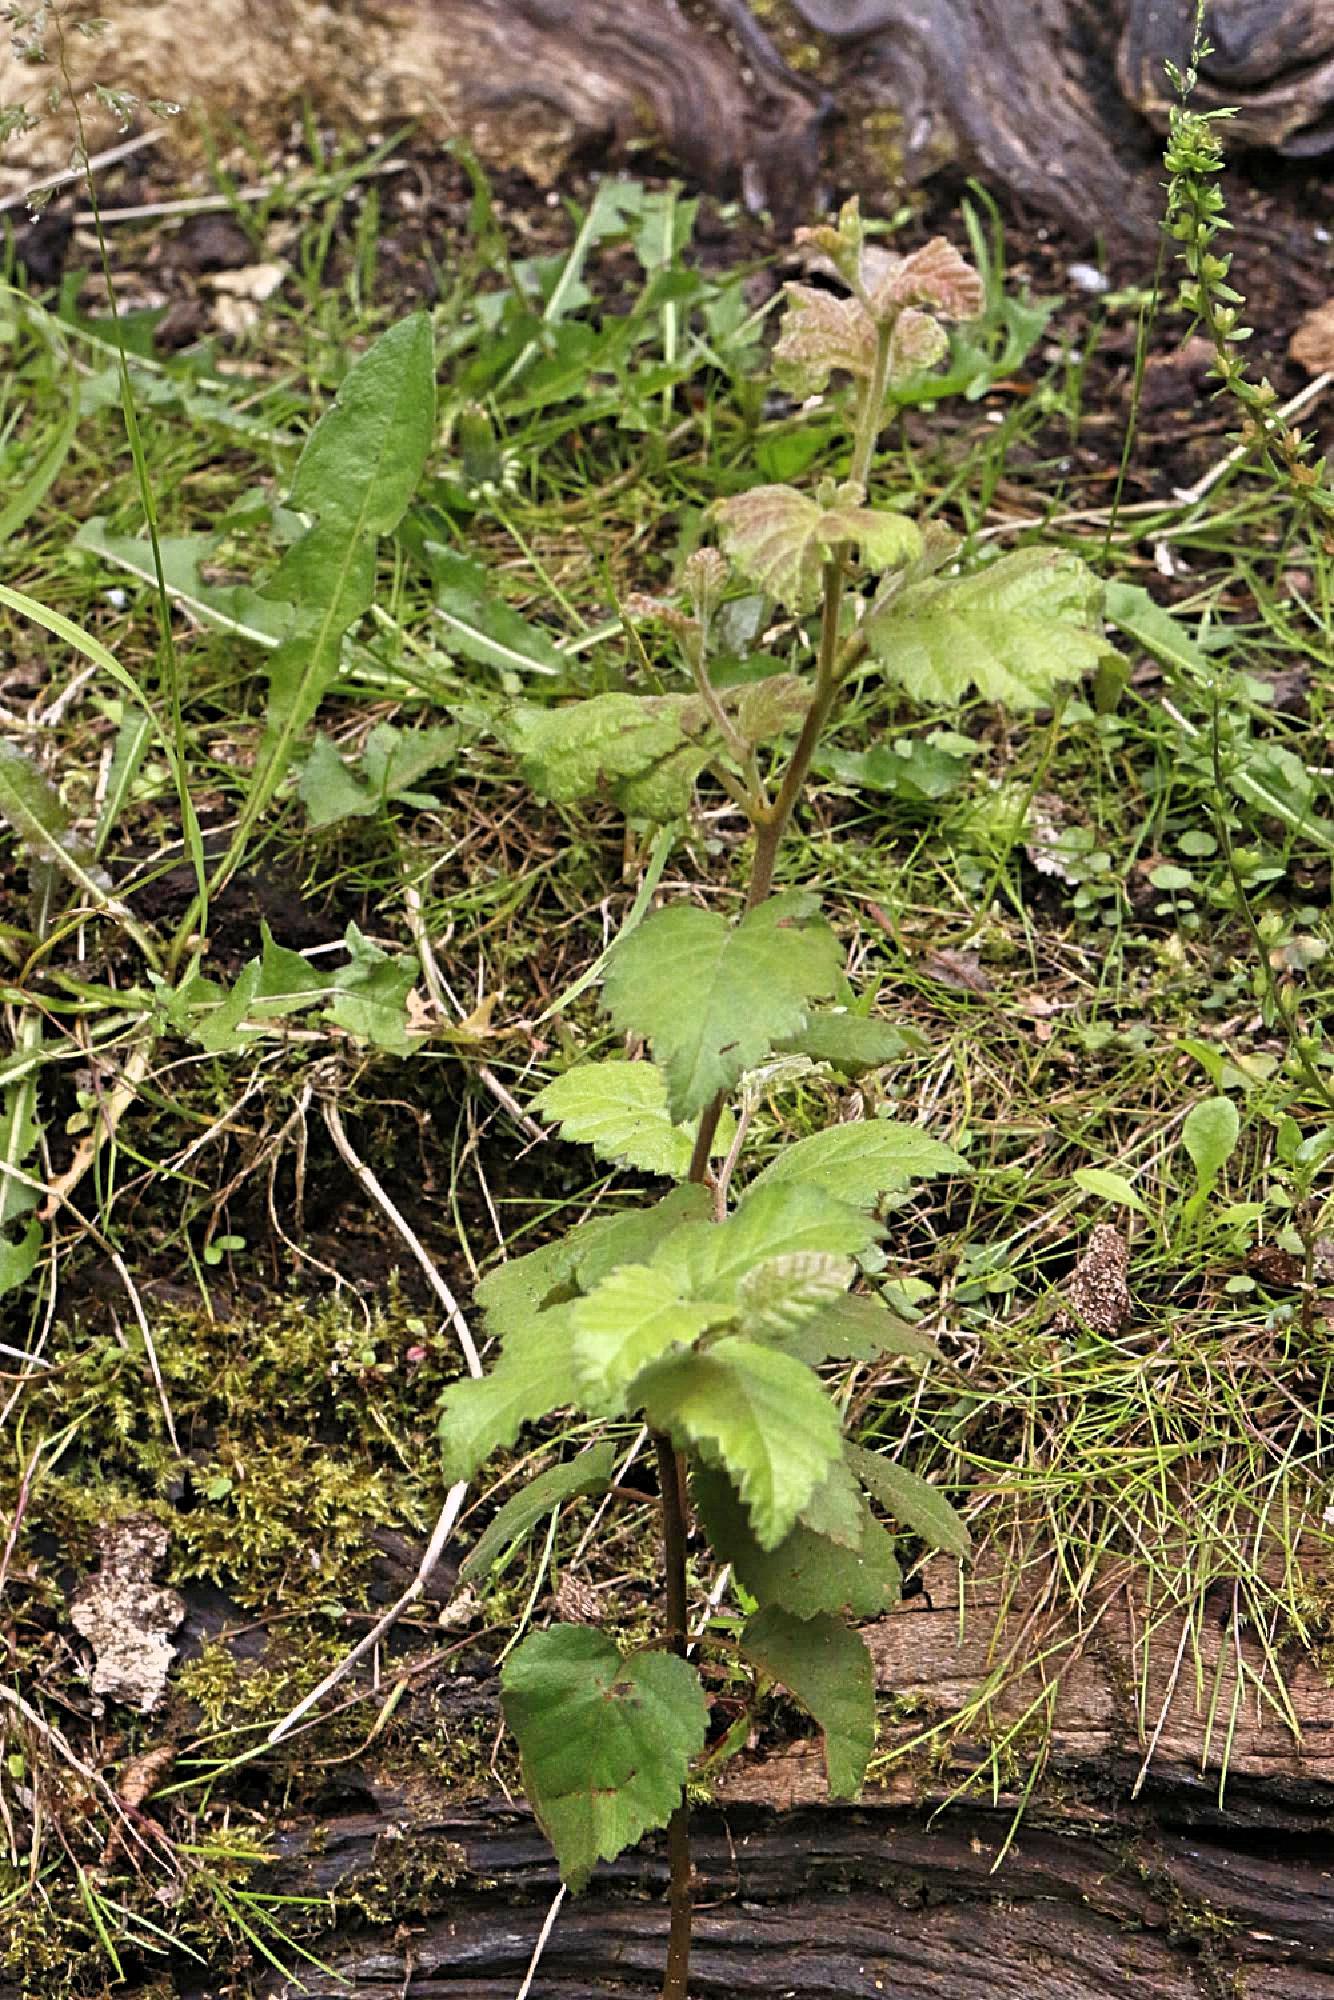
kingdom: Plantae
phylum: Tracheophyta
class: Magnoliopsida
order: Fagales
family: Betulaceae
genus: Betula
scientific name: Betula pubescens
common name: Downy birch
